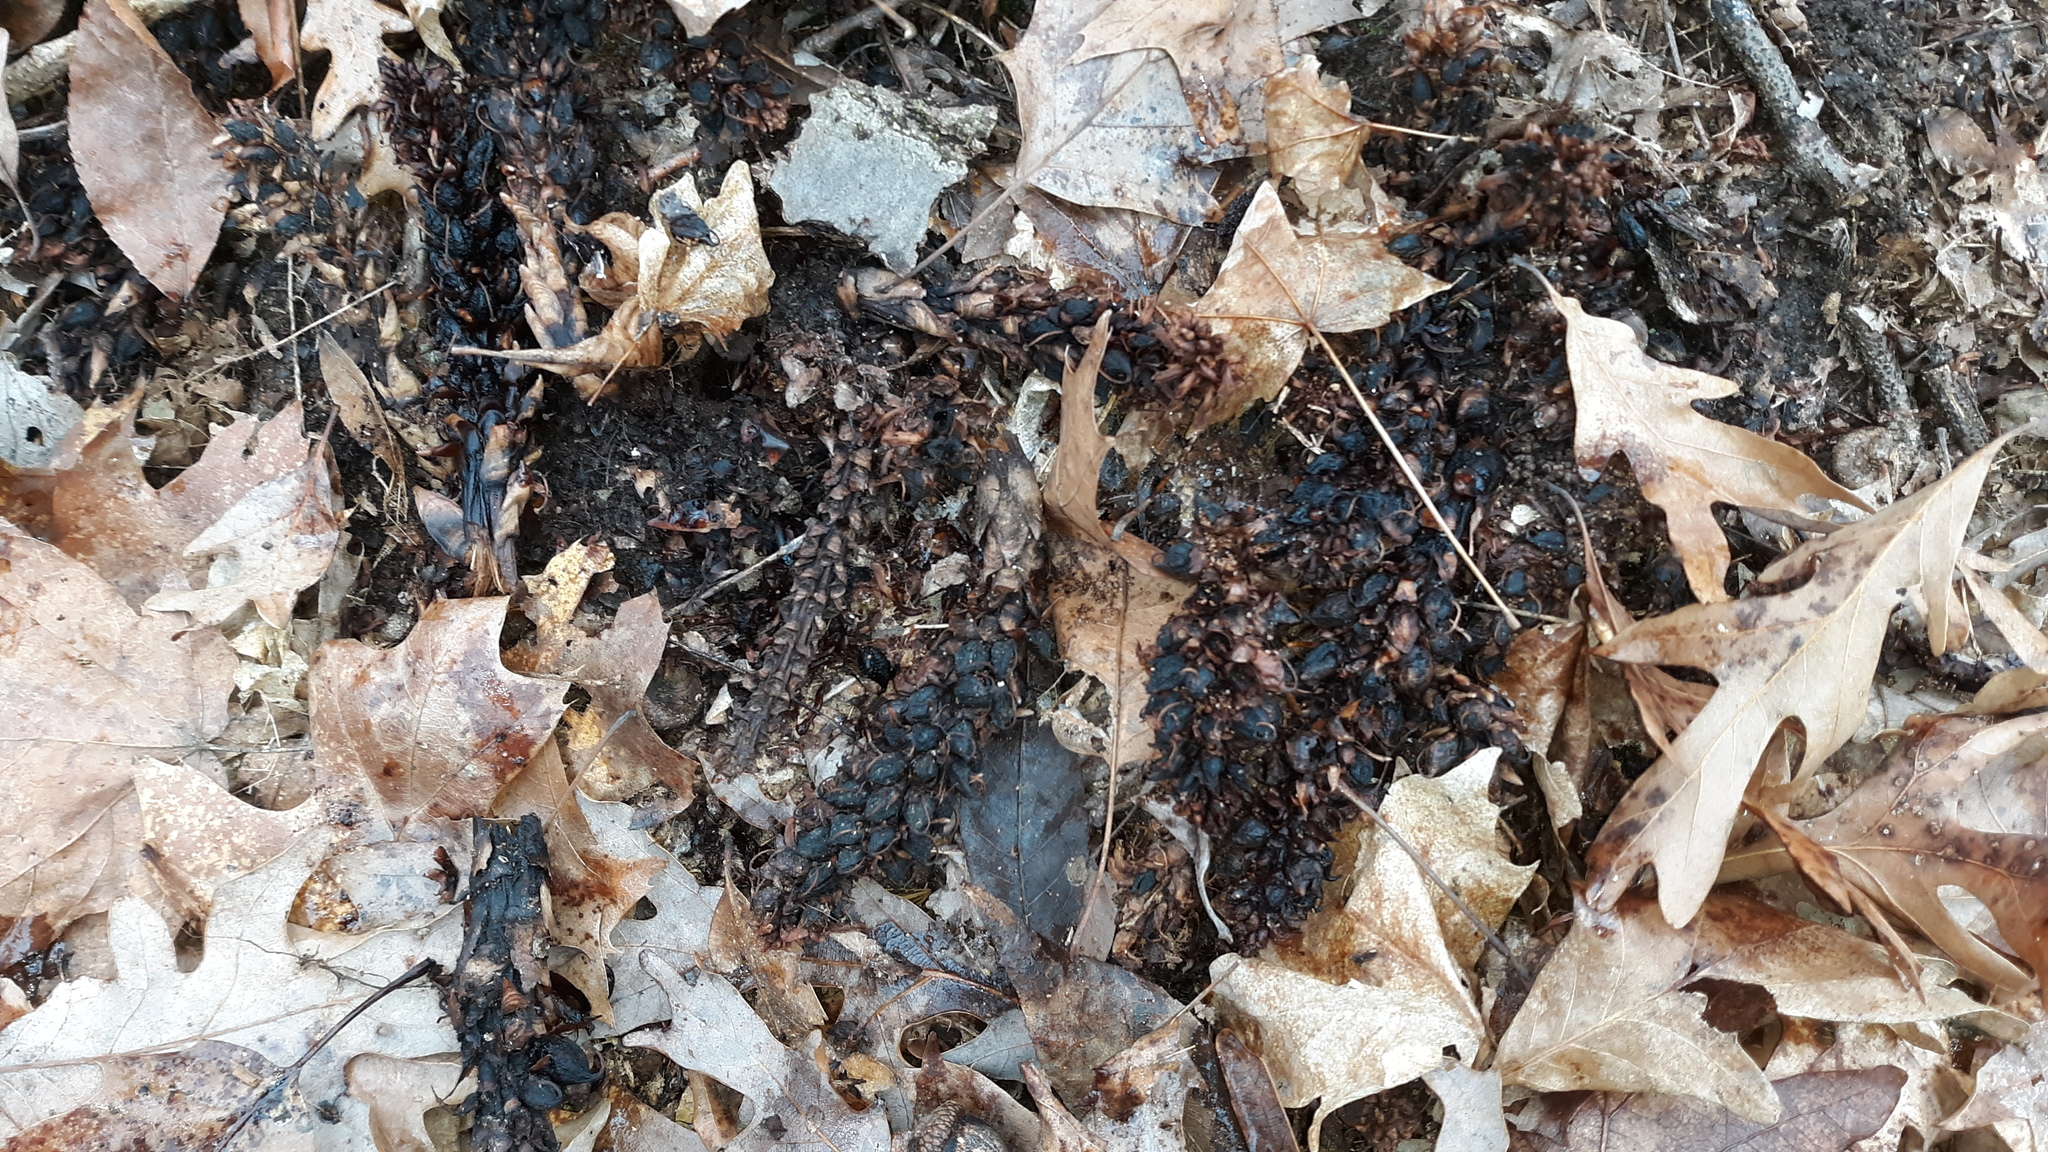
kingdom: Plantae
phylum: Tracheophyta
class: Magnoliopsida
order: Lamiales
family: Orobanchaceae
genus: Conopholis
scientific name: Conopholis americana
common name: American cancer-root
